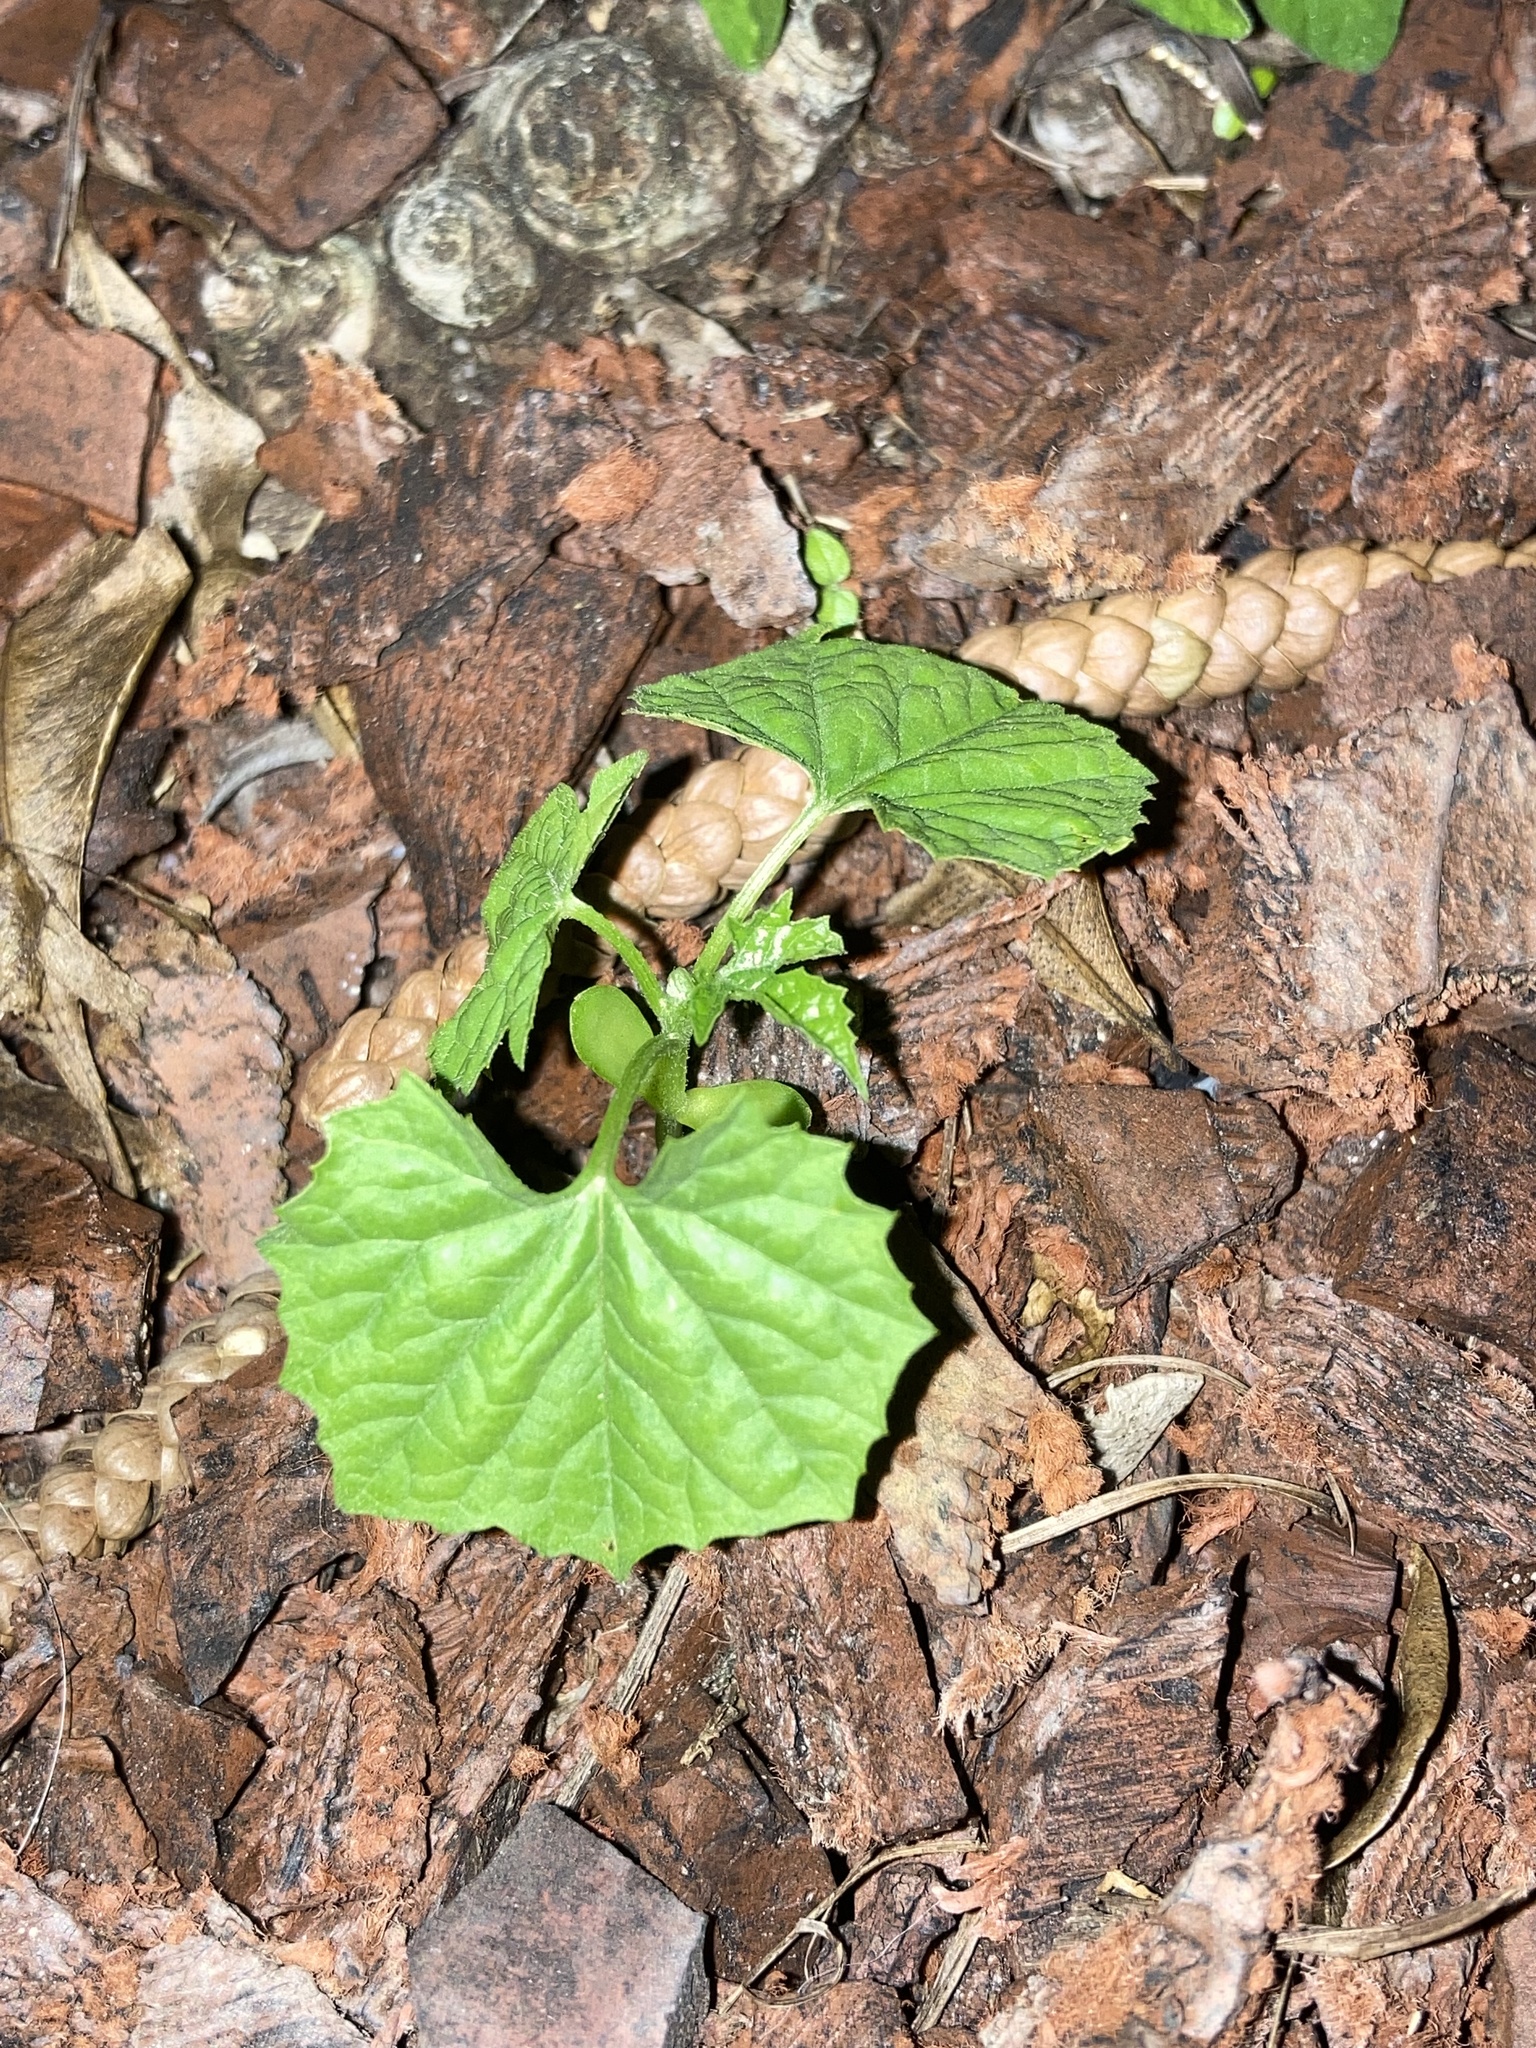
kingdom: Plantae
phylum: Tracheophyta
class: Magnoliopsida
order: Cucurbitales
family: Cucurbitaceae
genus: Momordica
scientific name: Momordica charantia
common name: Balsampear
